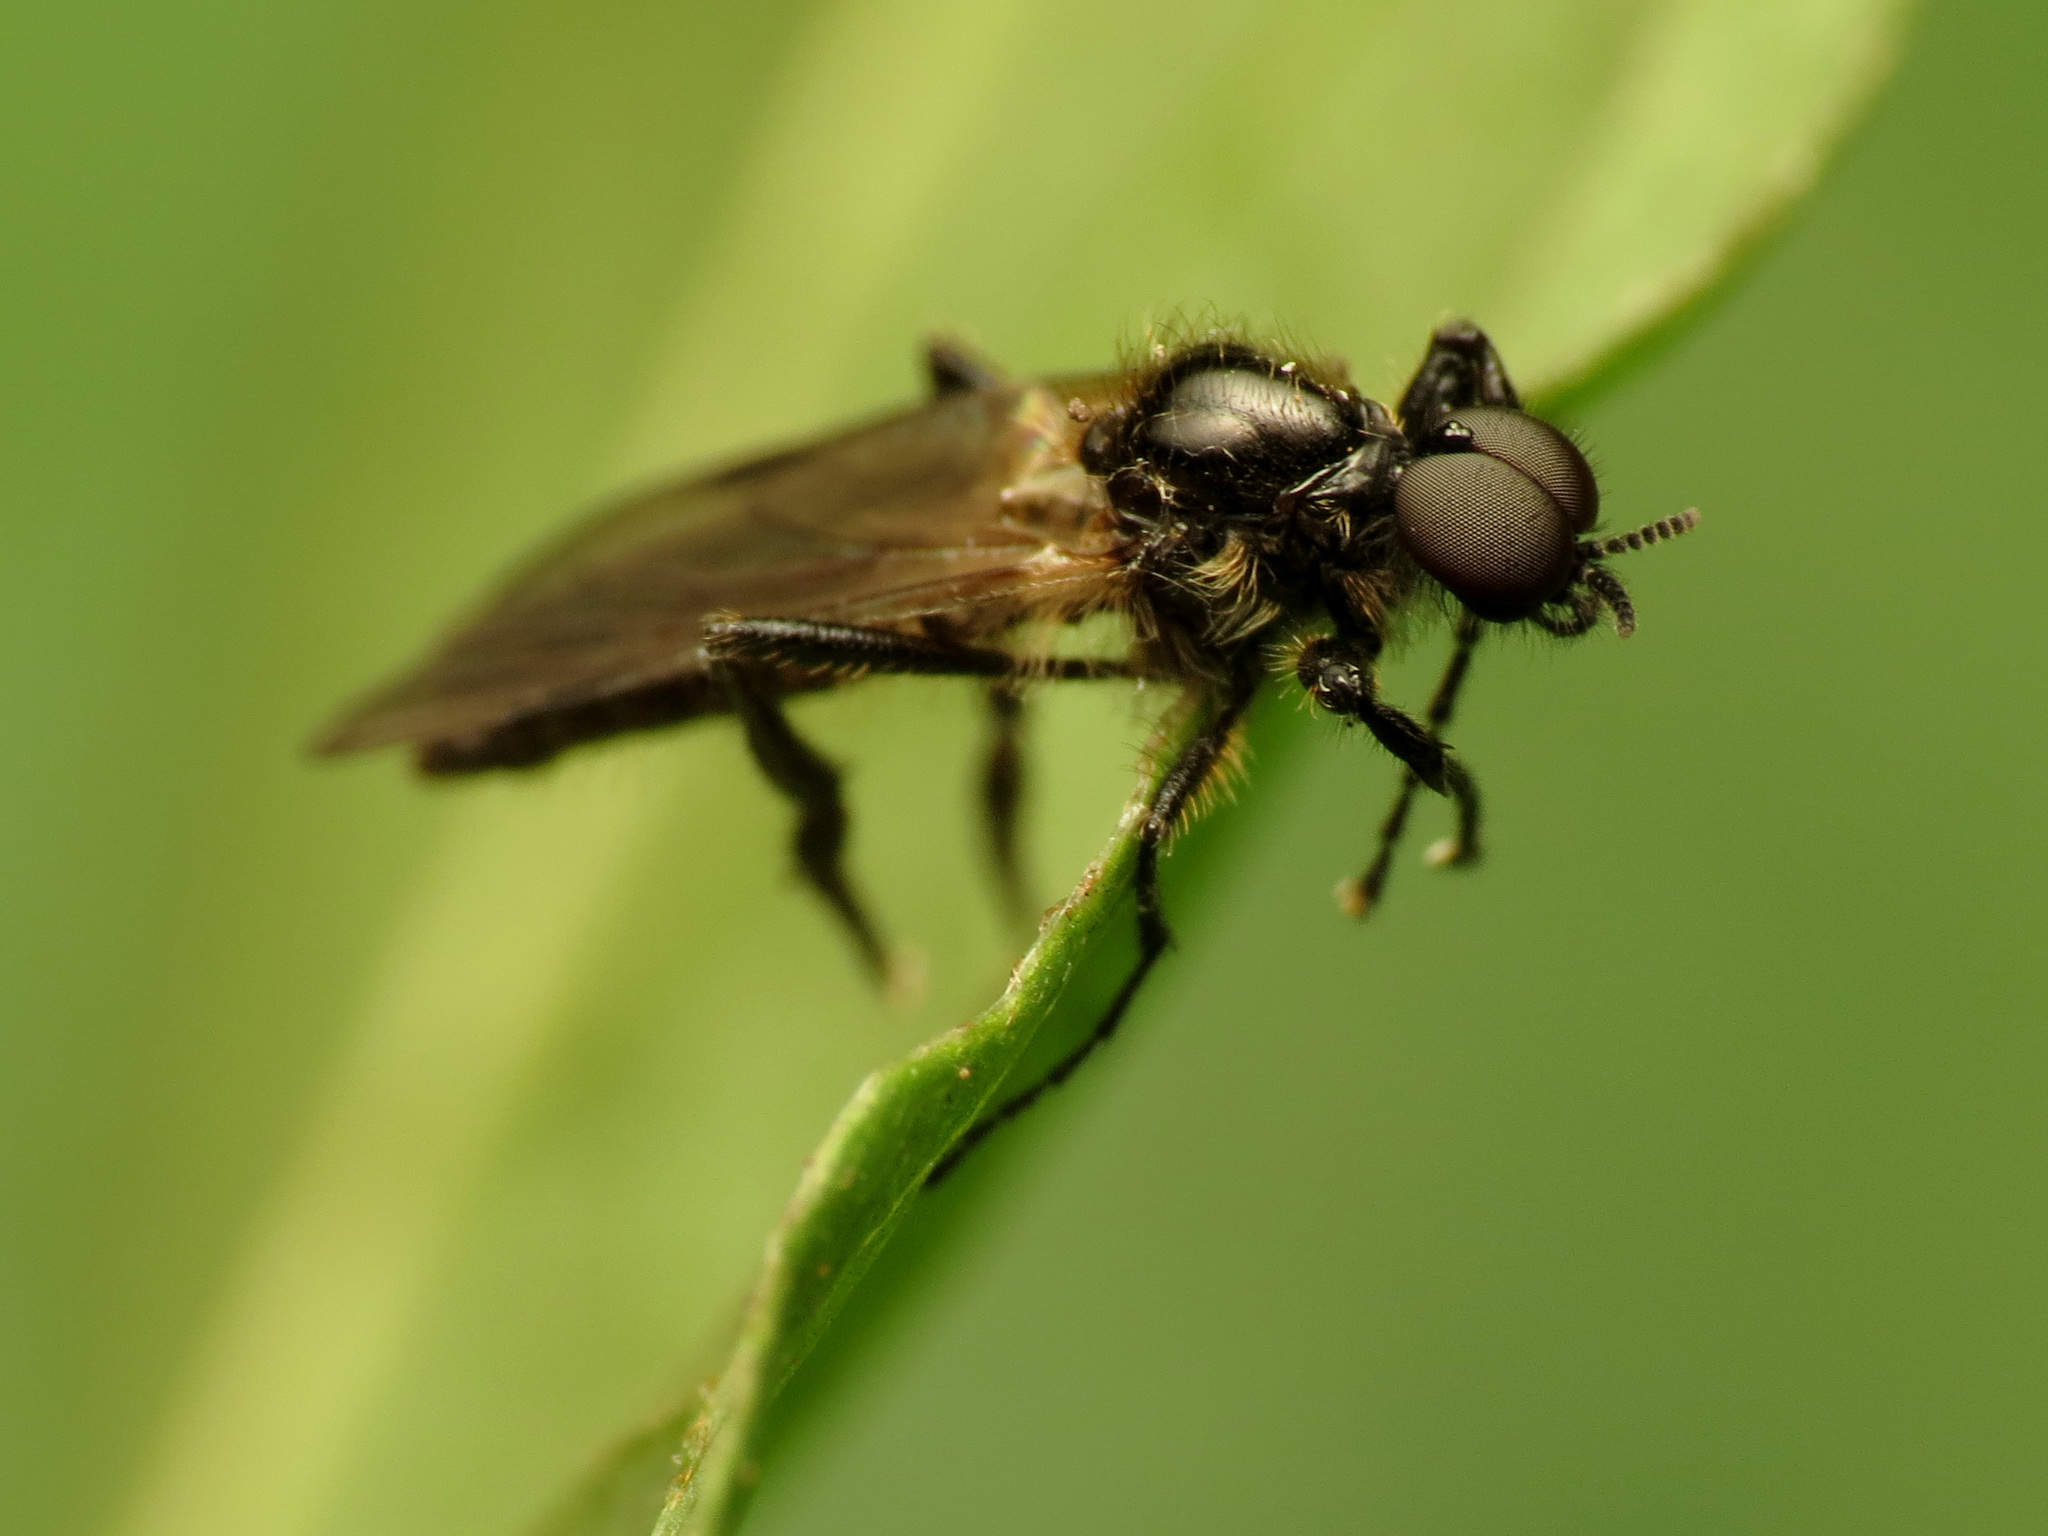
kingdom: Animalia
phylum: Arthropoda
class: Insecta
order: Diptera
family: Bibionidae
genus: Bibio
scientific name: Bibio longipes
